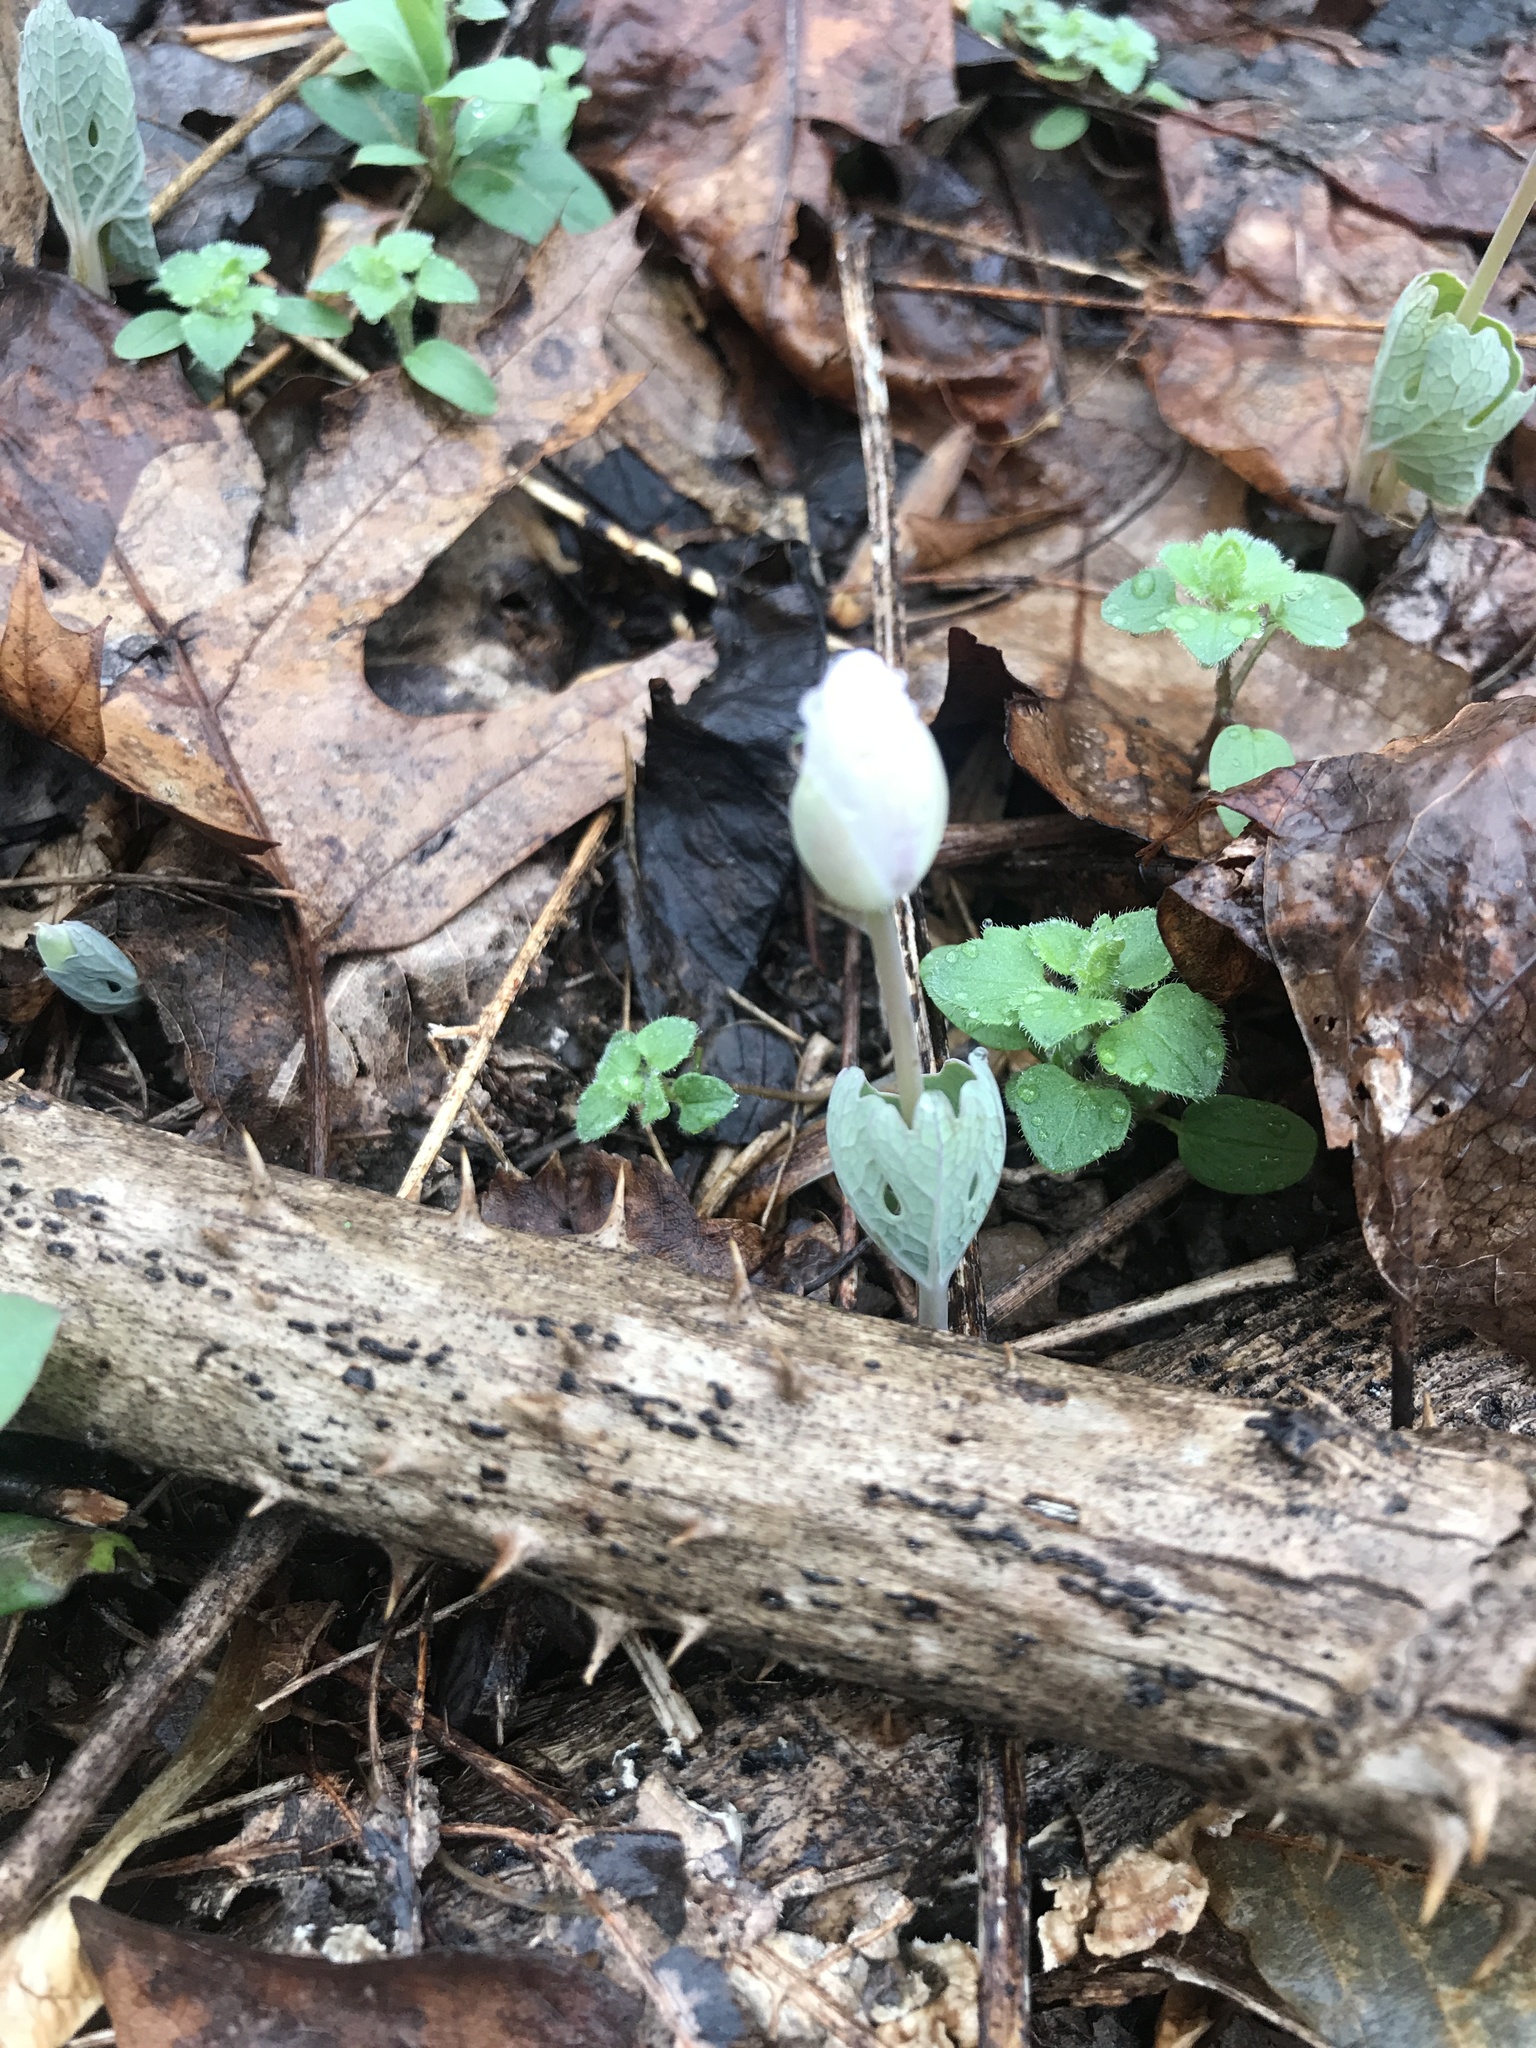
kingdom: Plantae
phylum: Tracheophyta
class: Magnoliopsida
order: Ranunculales
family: Papaveraceae
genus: Sanguinaria
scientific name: Sanguinaria canadensis
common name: Bloodroot
